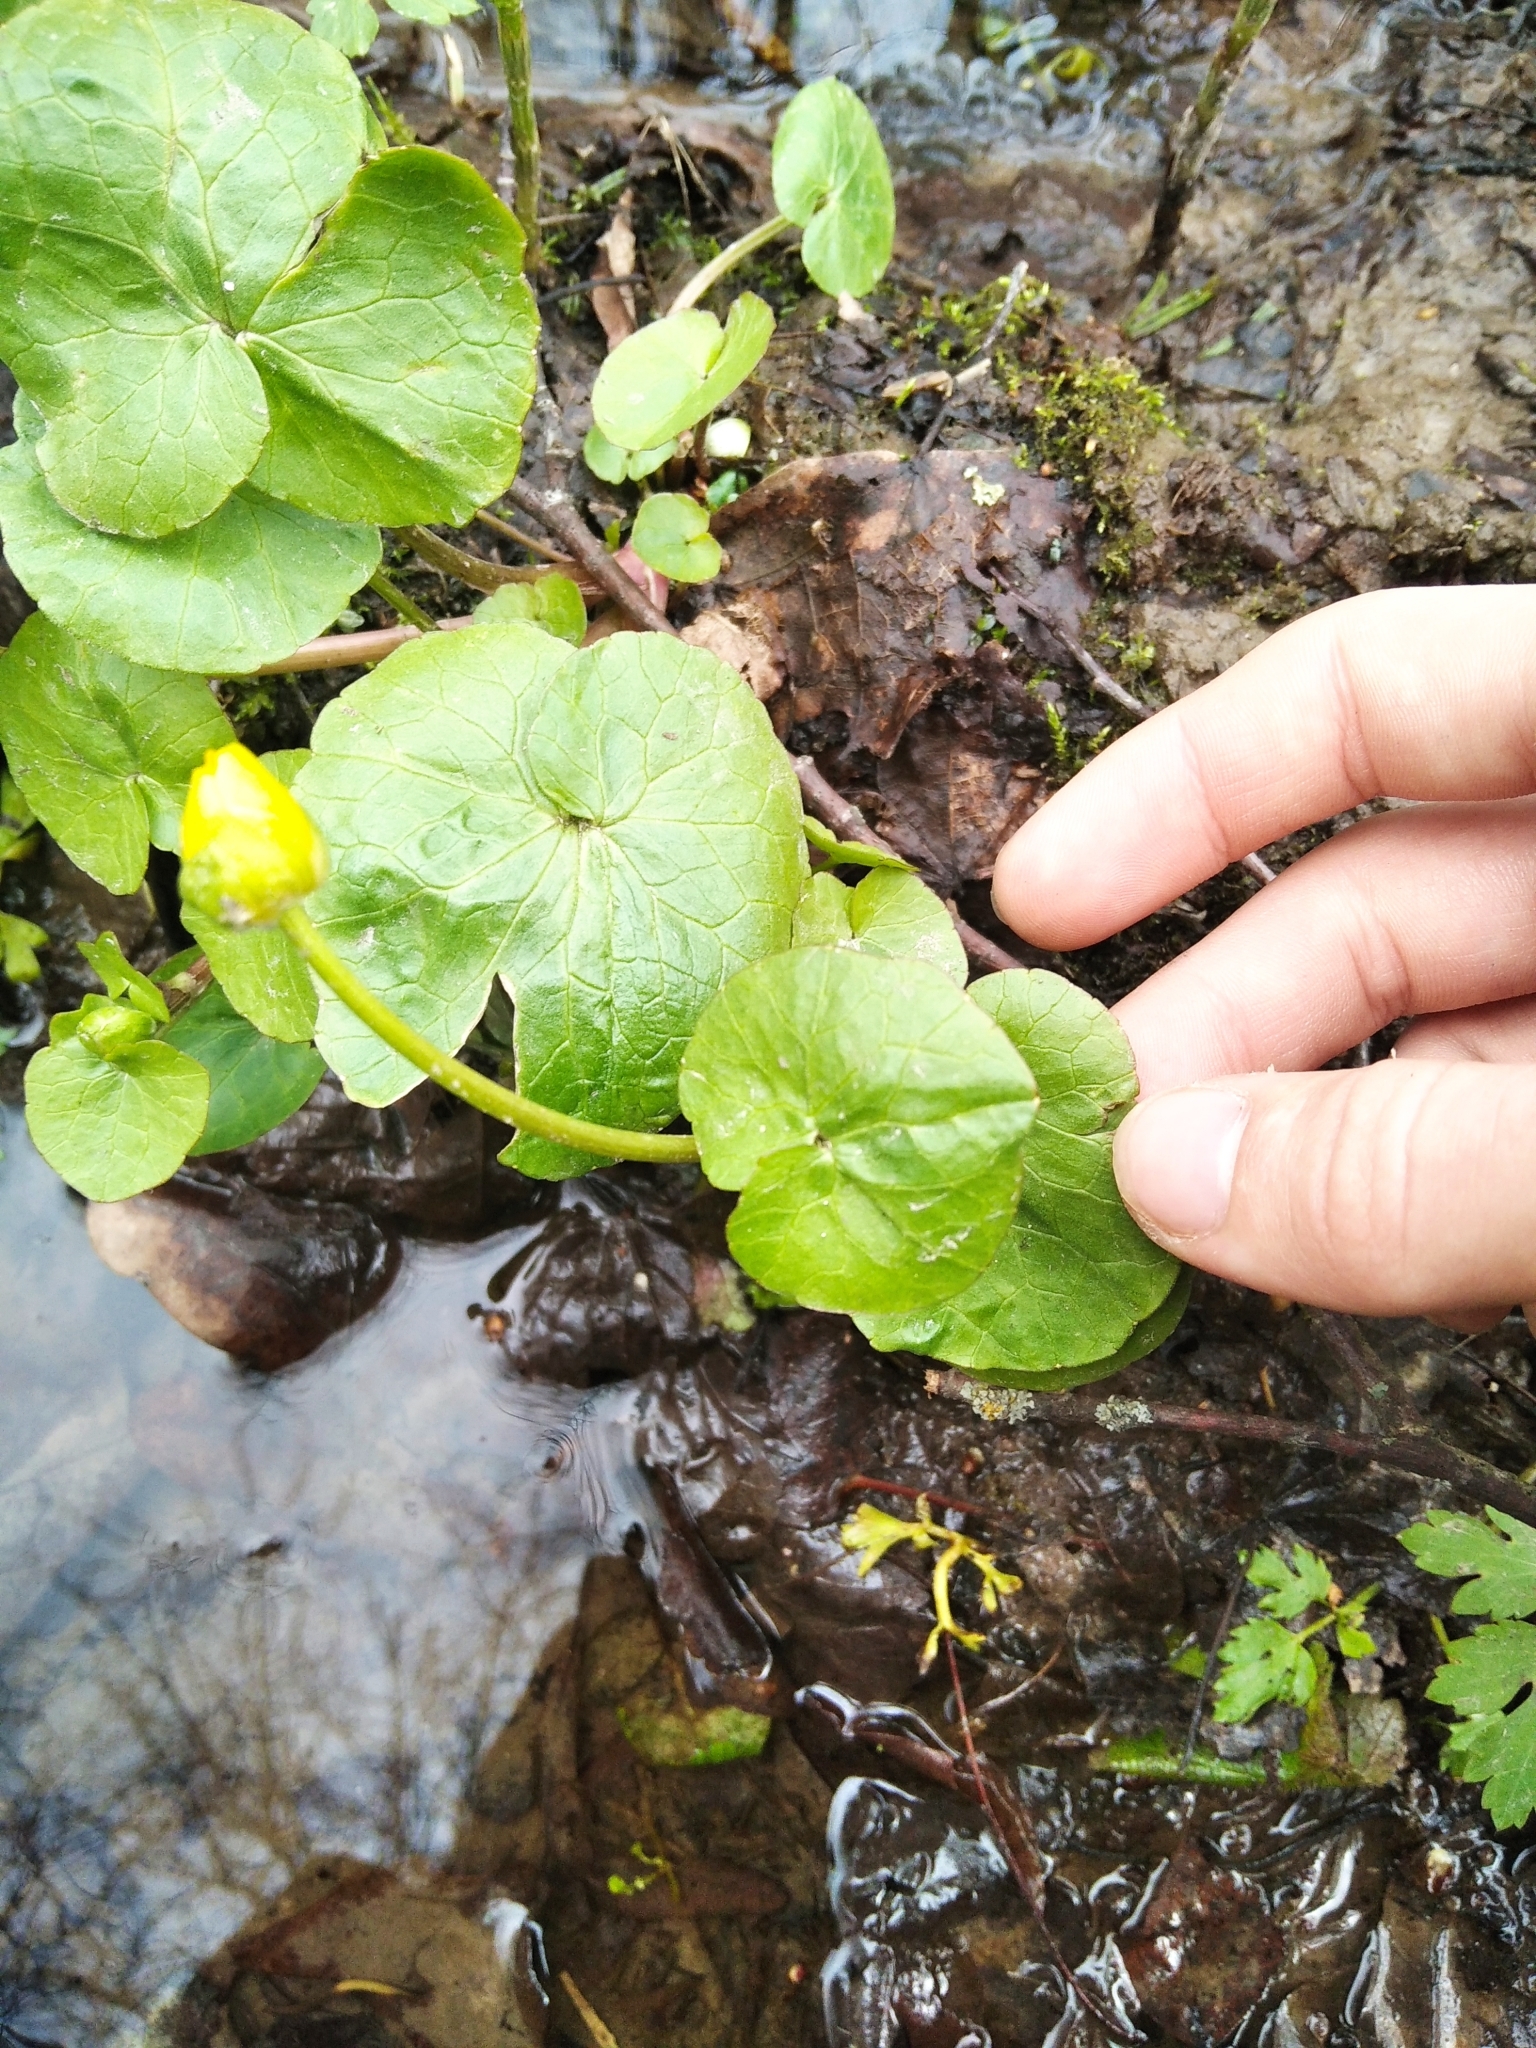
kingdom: Plantae
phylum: Tracheophyta
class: Magnoliopsida
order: Ranunculales
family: Ranunculaceae
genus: Ficaria
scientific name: Ficaria verna
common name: Lesser celandine
